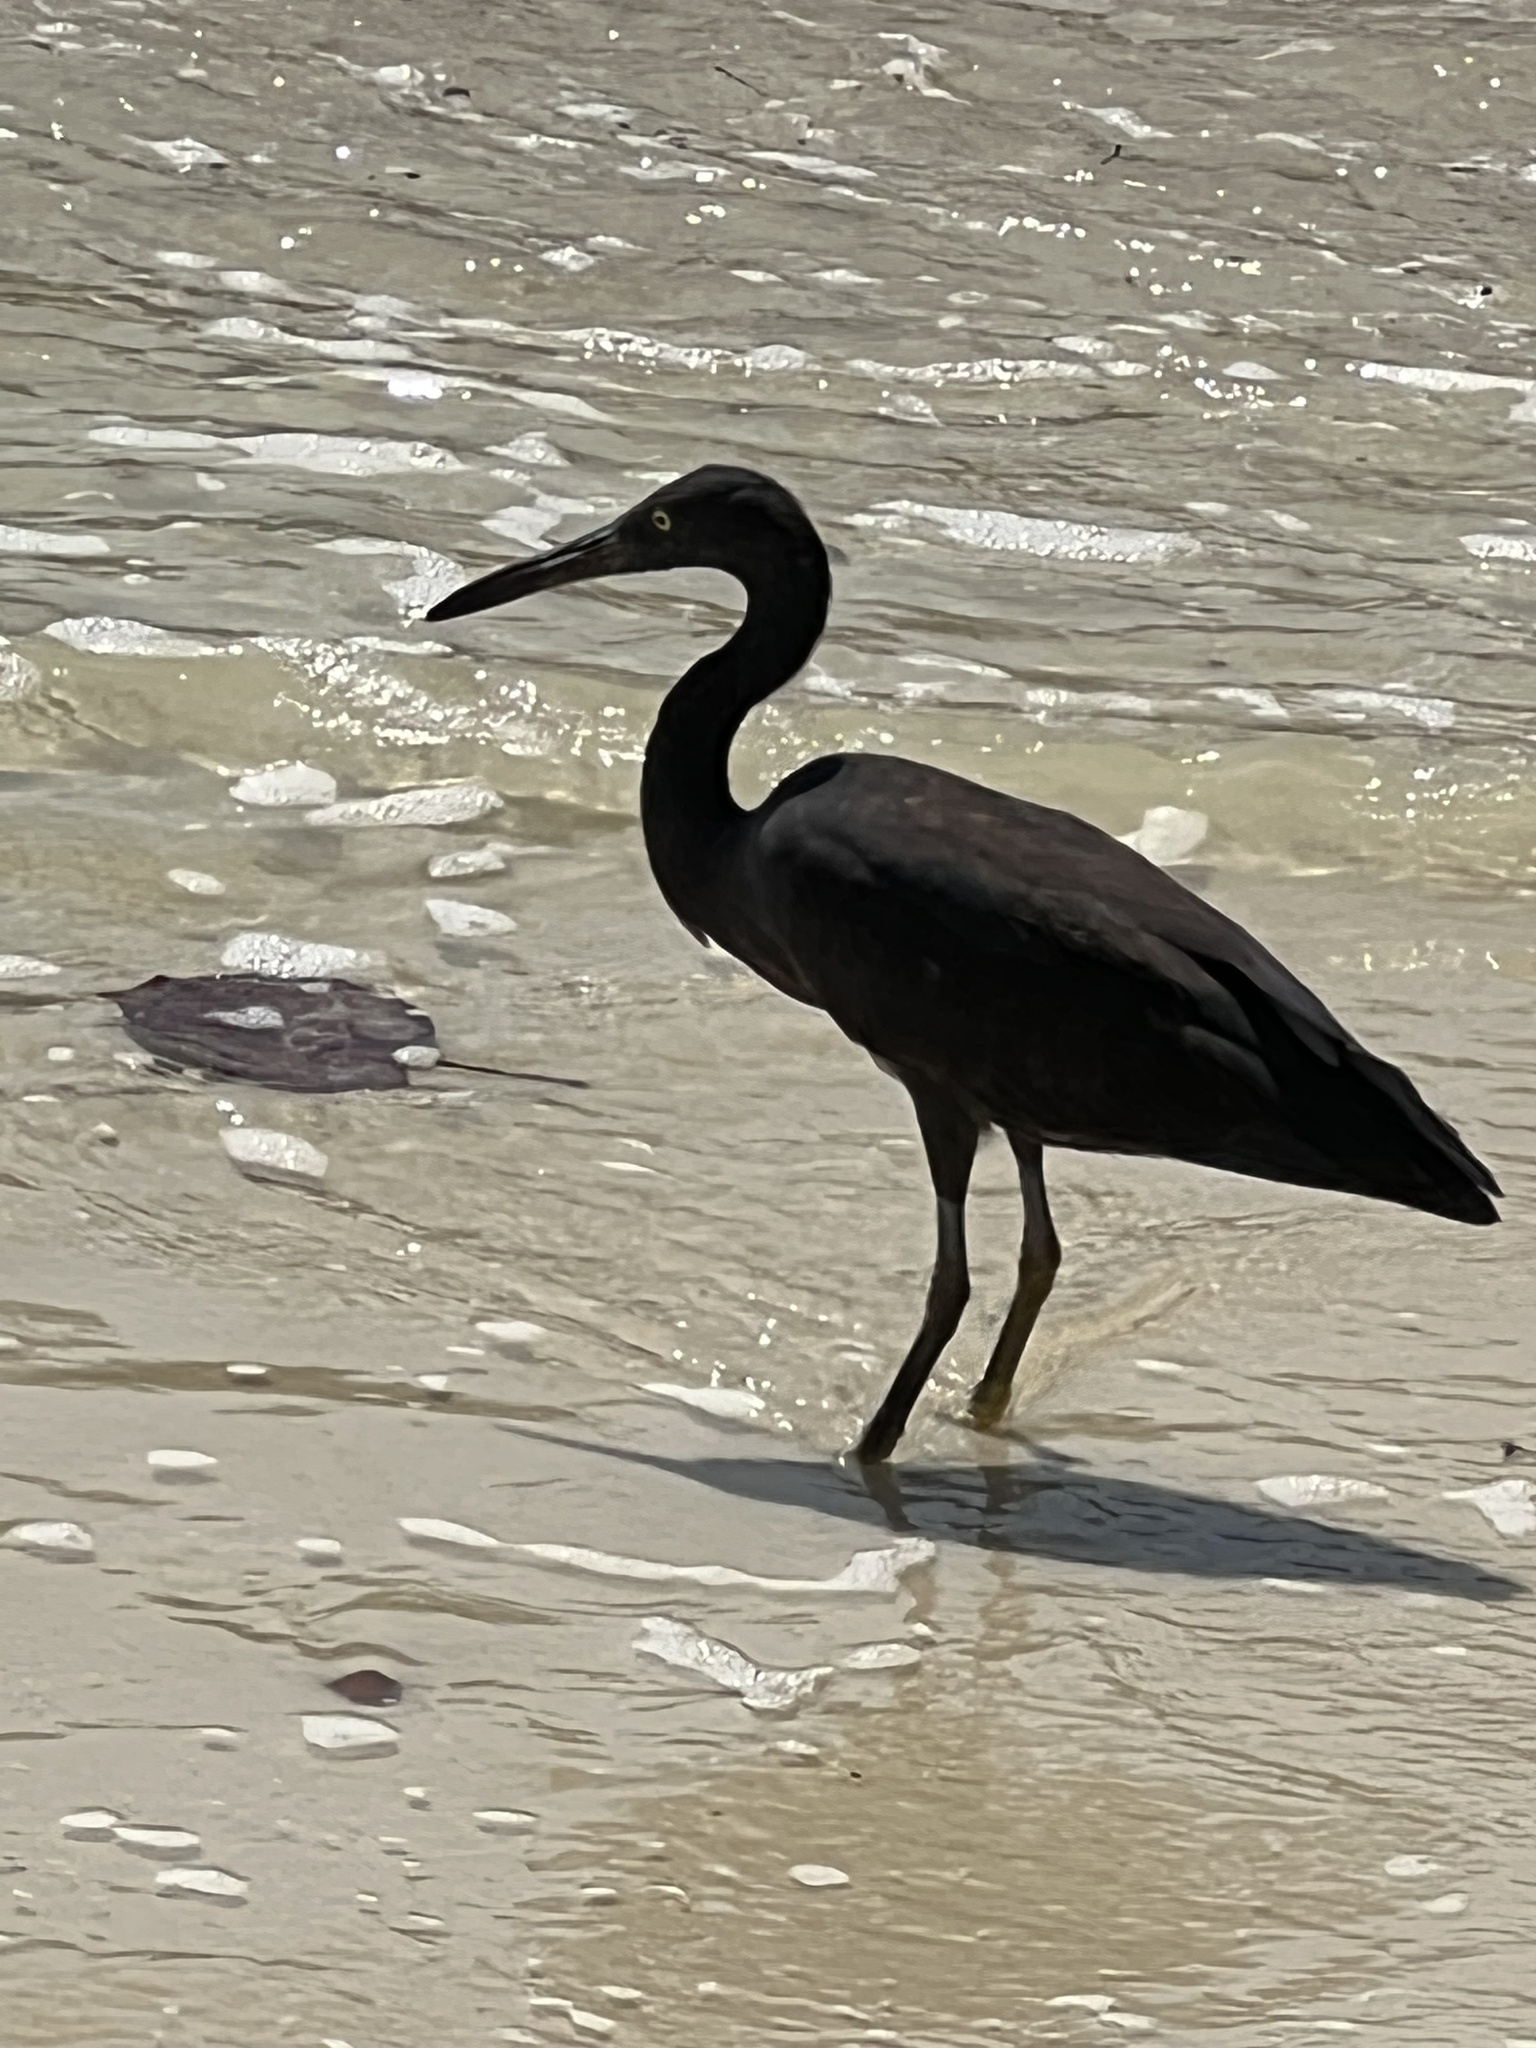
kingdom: Animalia
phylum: Chordata
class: Aves
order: Pelecaniformes
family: Ardeidae
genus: Egretta
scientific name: Egretta sacra
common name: Pacific reef heron
